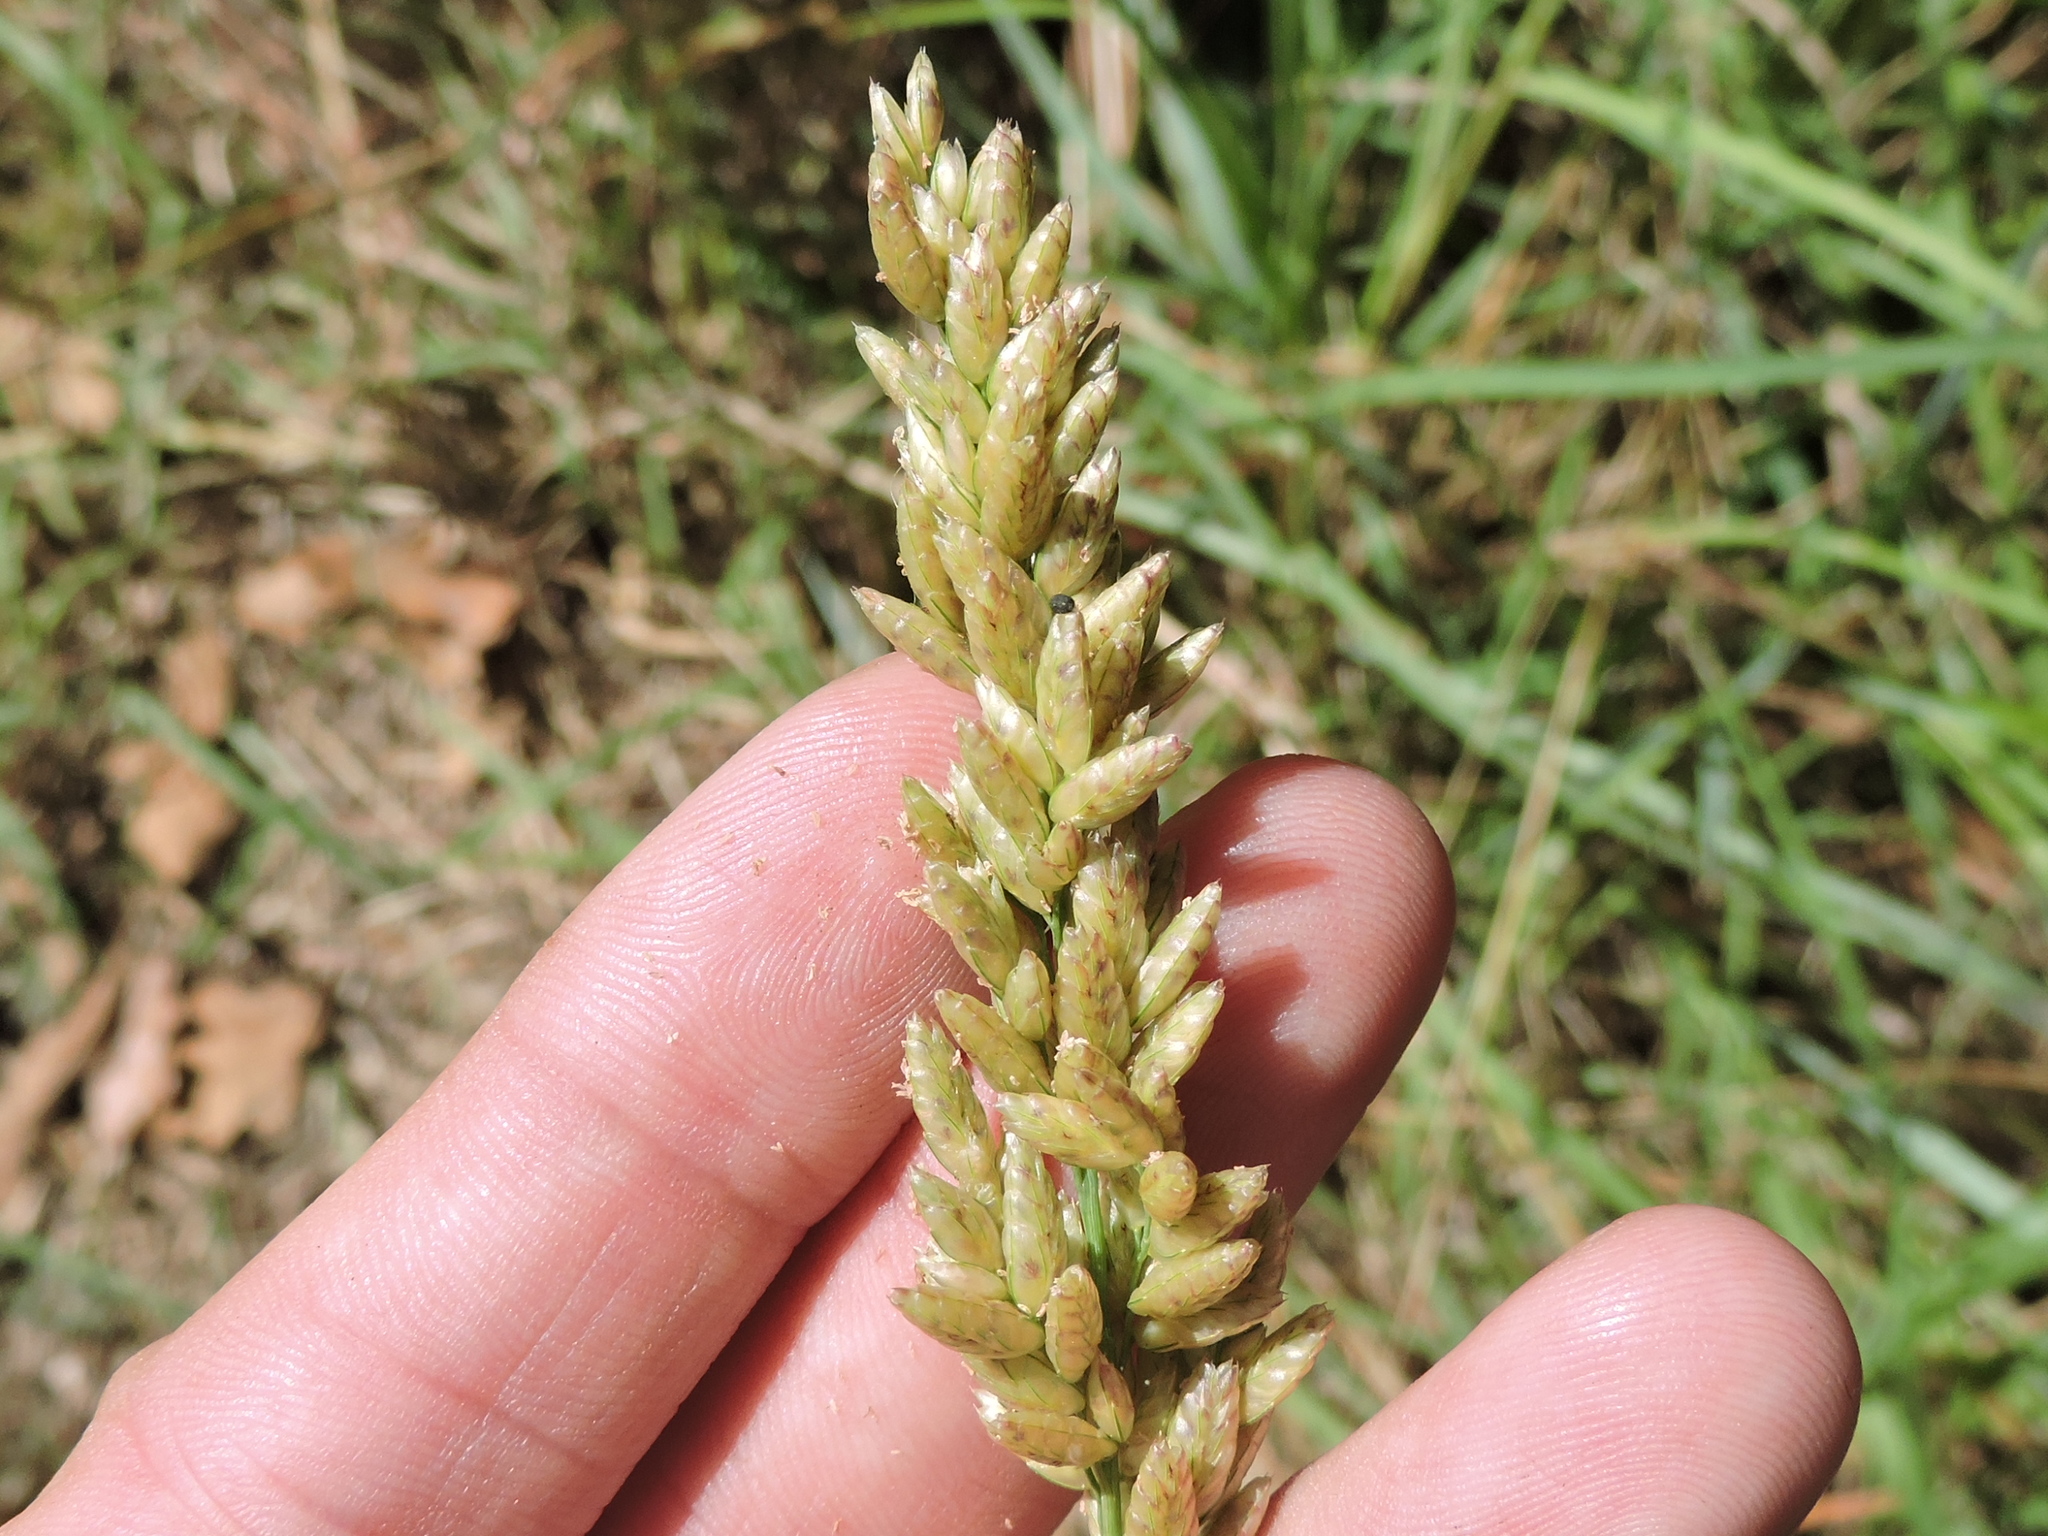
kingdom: Plantae
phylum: Tracheophyta
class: Liliopsida
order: Poales
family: Poaceae
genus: Tridens
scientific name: Tridens congestus
